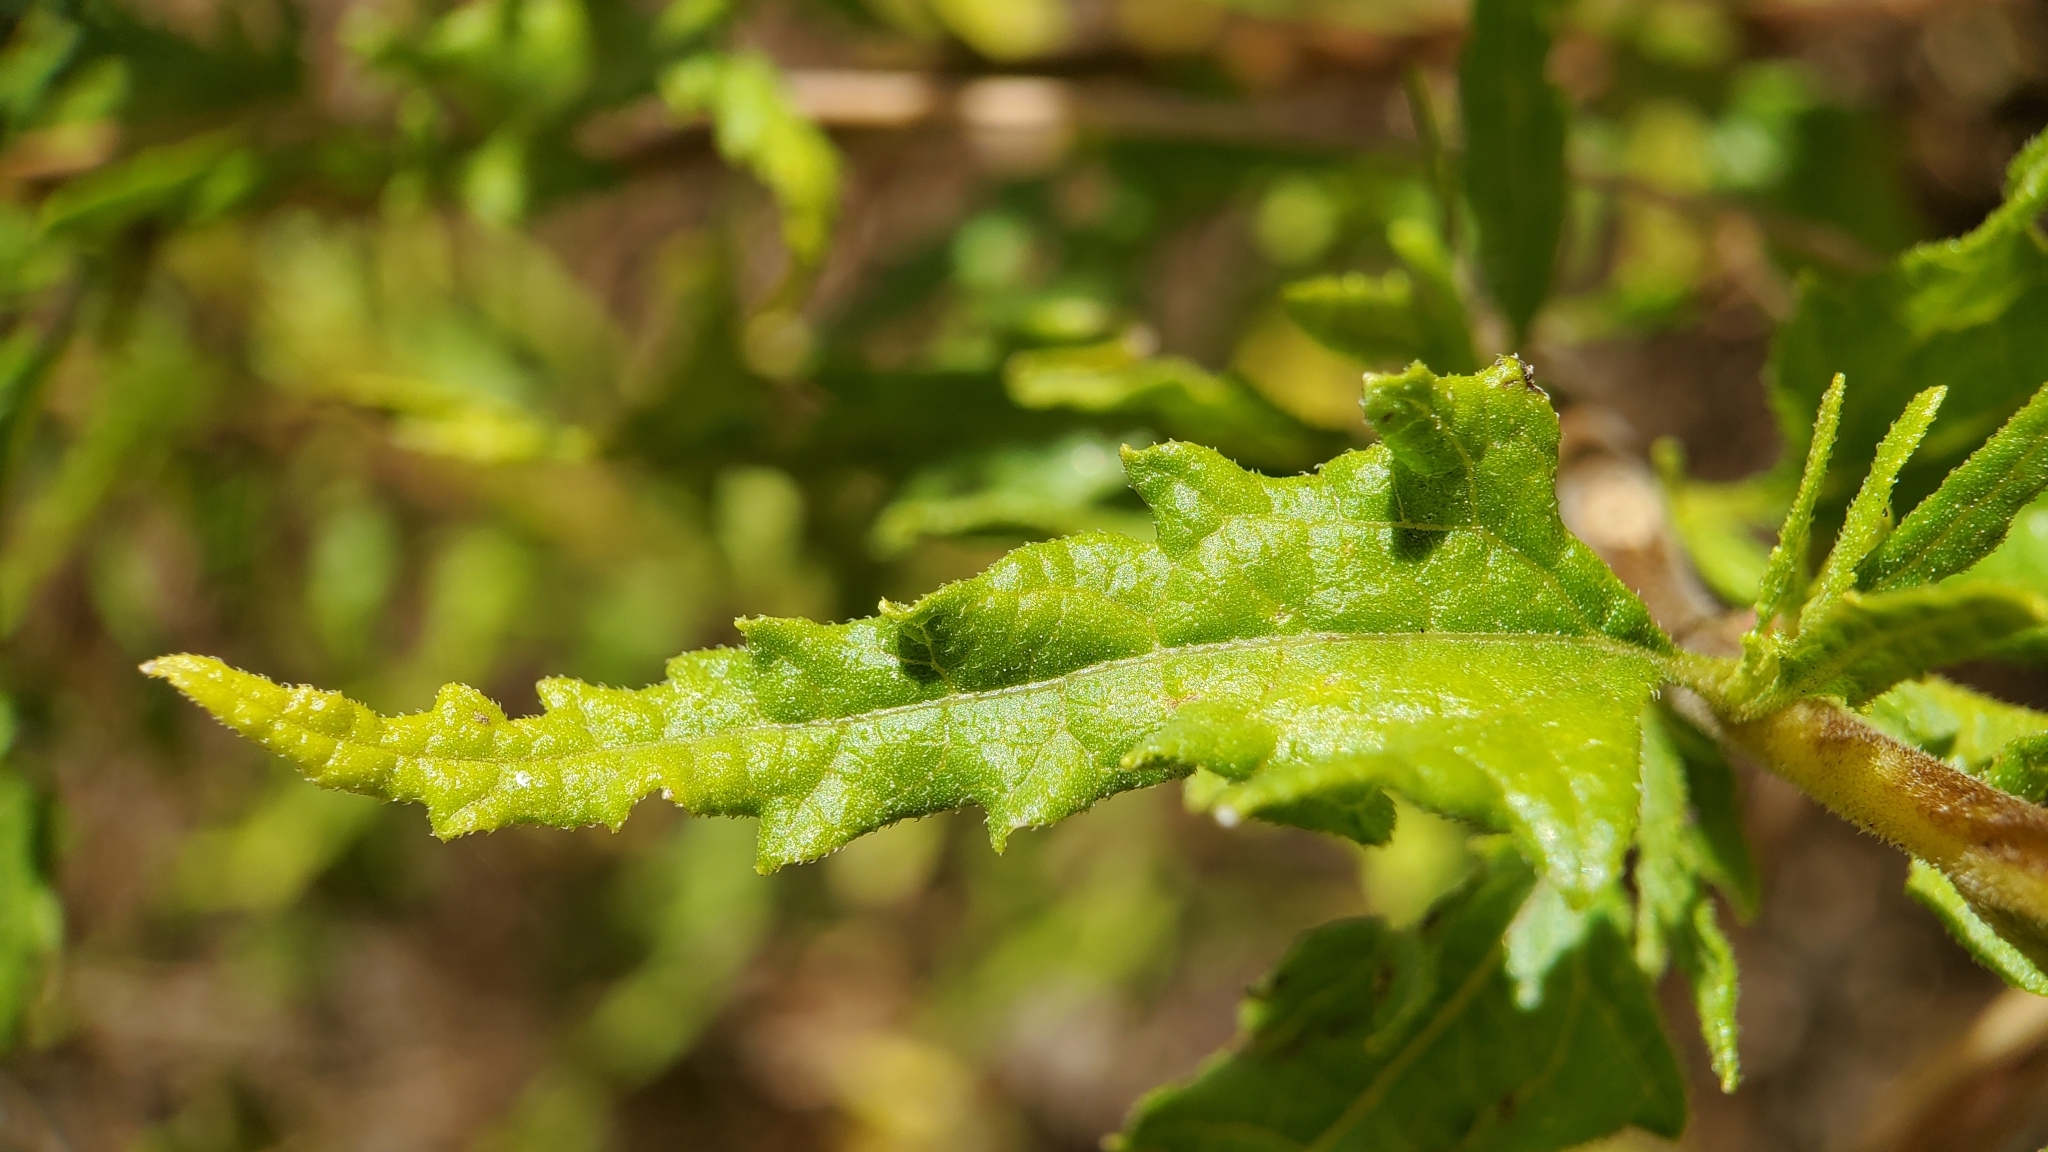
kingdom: Plantae
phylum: Tracheophyta
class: Magnoliopsida
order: Asterales
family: Asteraceae
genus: Bahiopsis
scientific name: Bahiopsis laciniata
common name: San diego county viguiera
